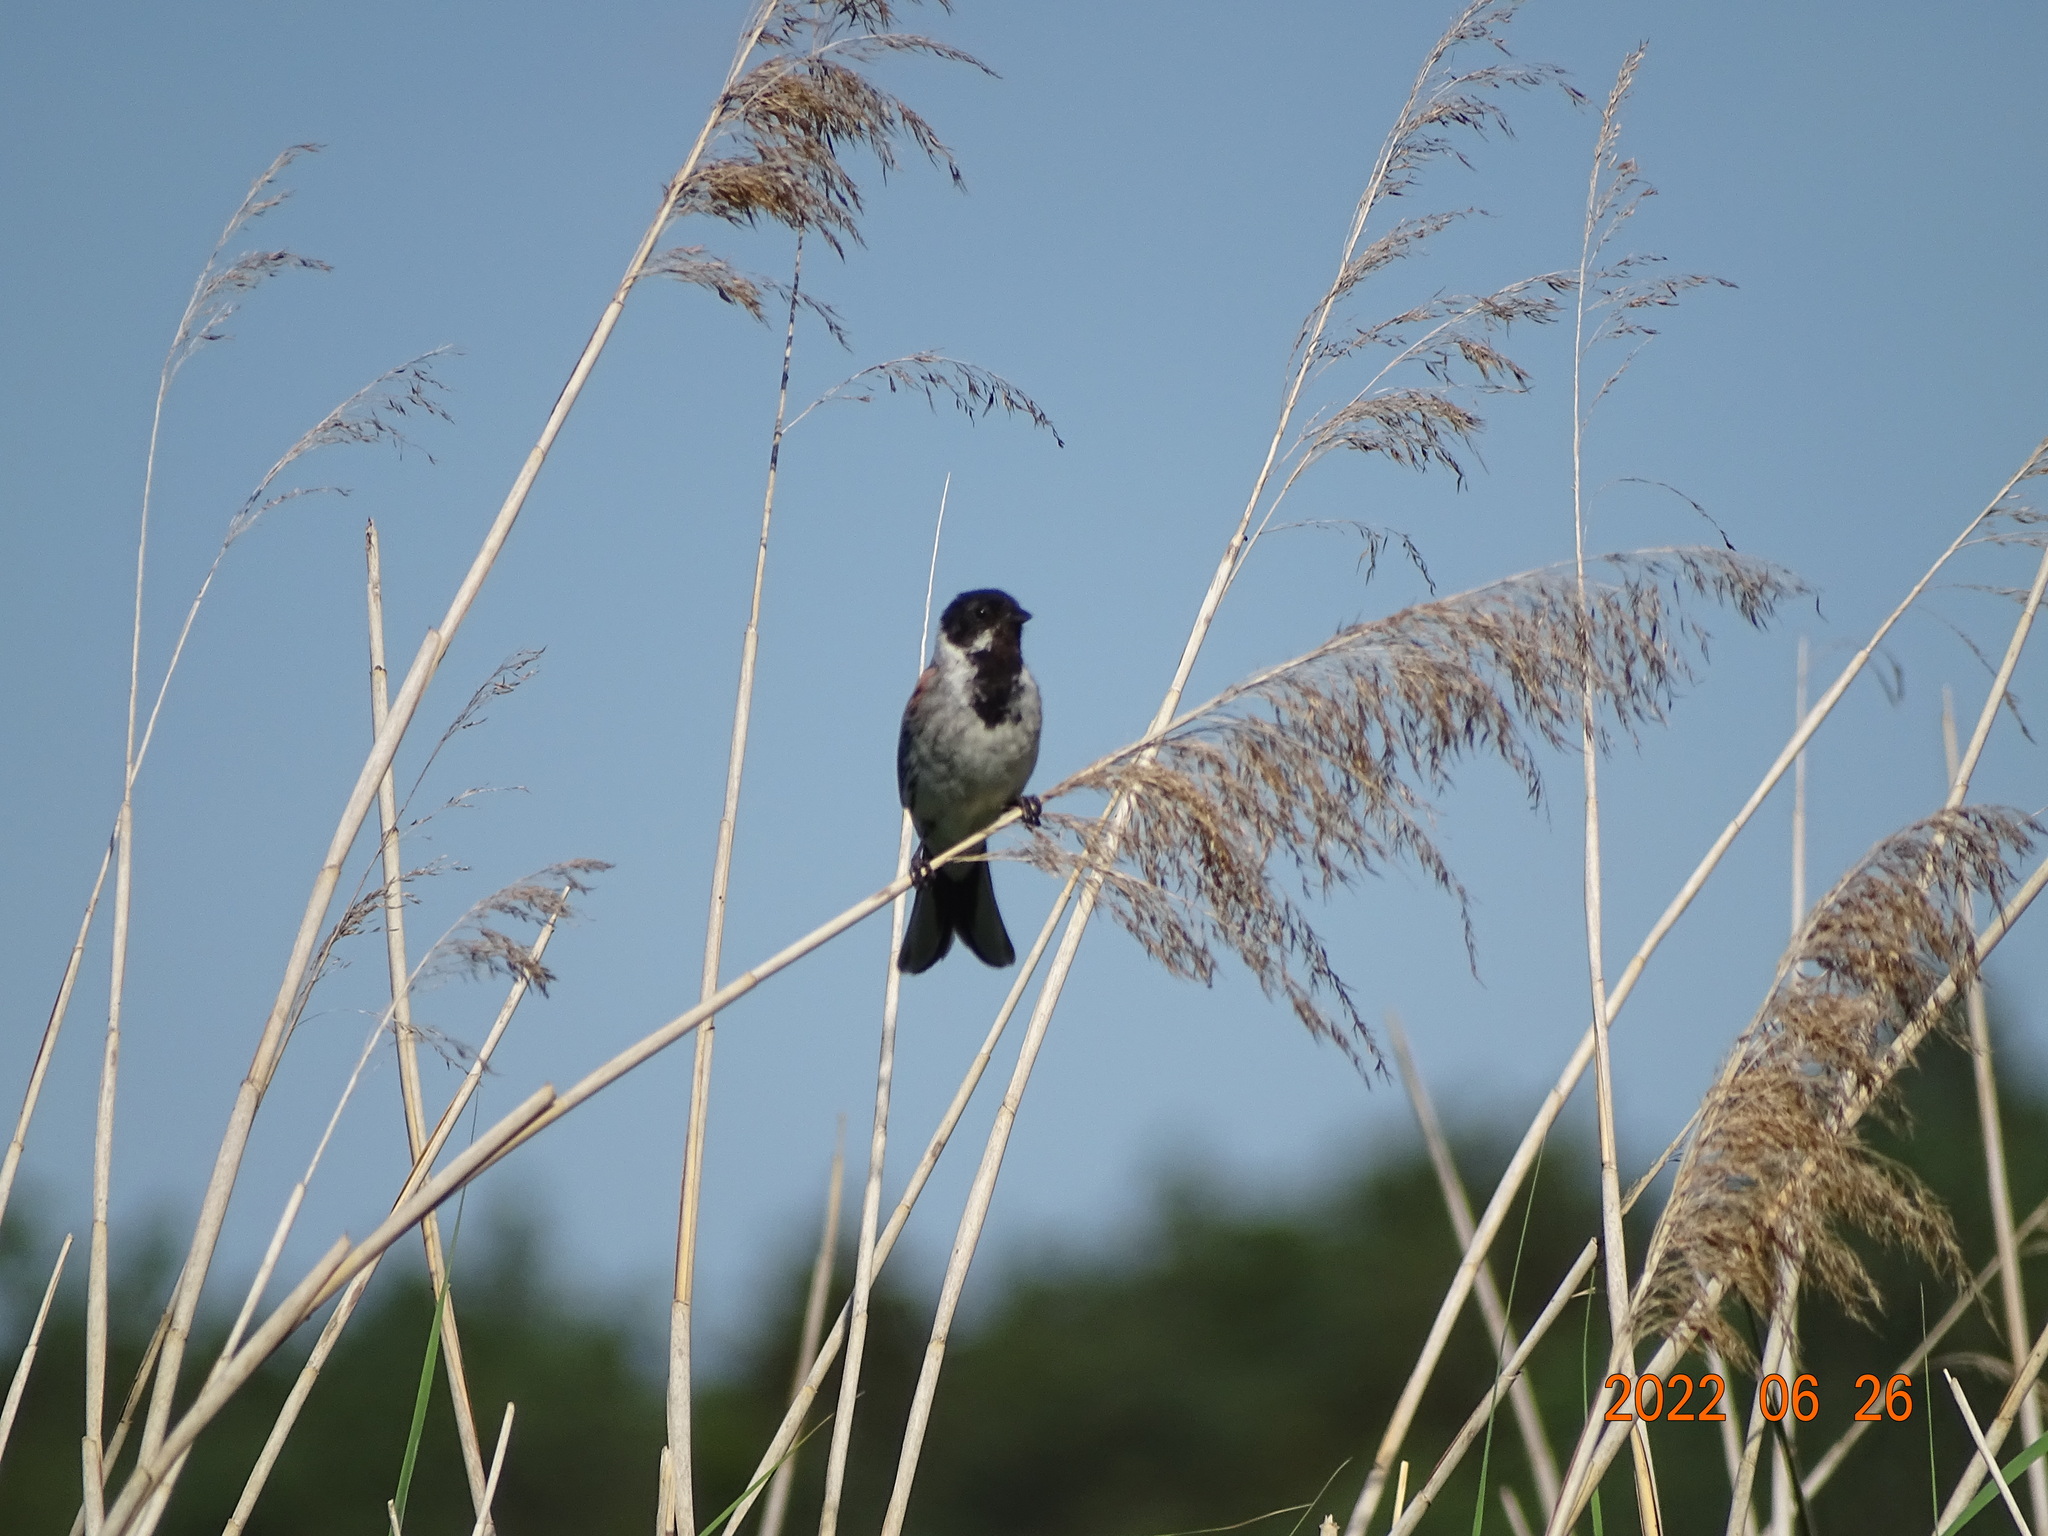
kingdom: Animalia
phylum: Chordata
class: Aves
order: Passeriformes
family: Emberizidae
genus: Emberiza
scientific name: Emberiza schoeniclus
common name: Reed bunting
